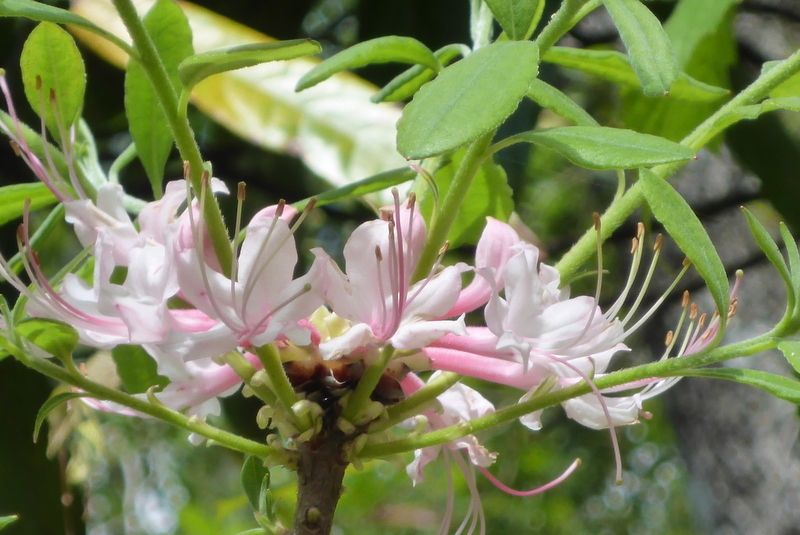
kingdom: Plantae
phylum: Tracheophyta
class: Magnoliopsida
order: Ericales
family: Ericaceae
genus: Rhododendron
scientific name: Rhododendron canescens
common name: Mountain azalea
